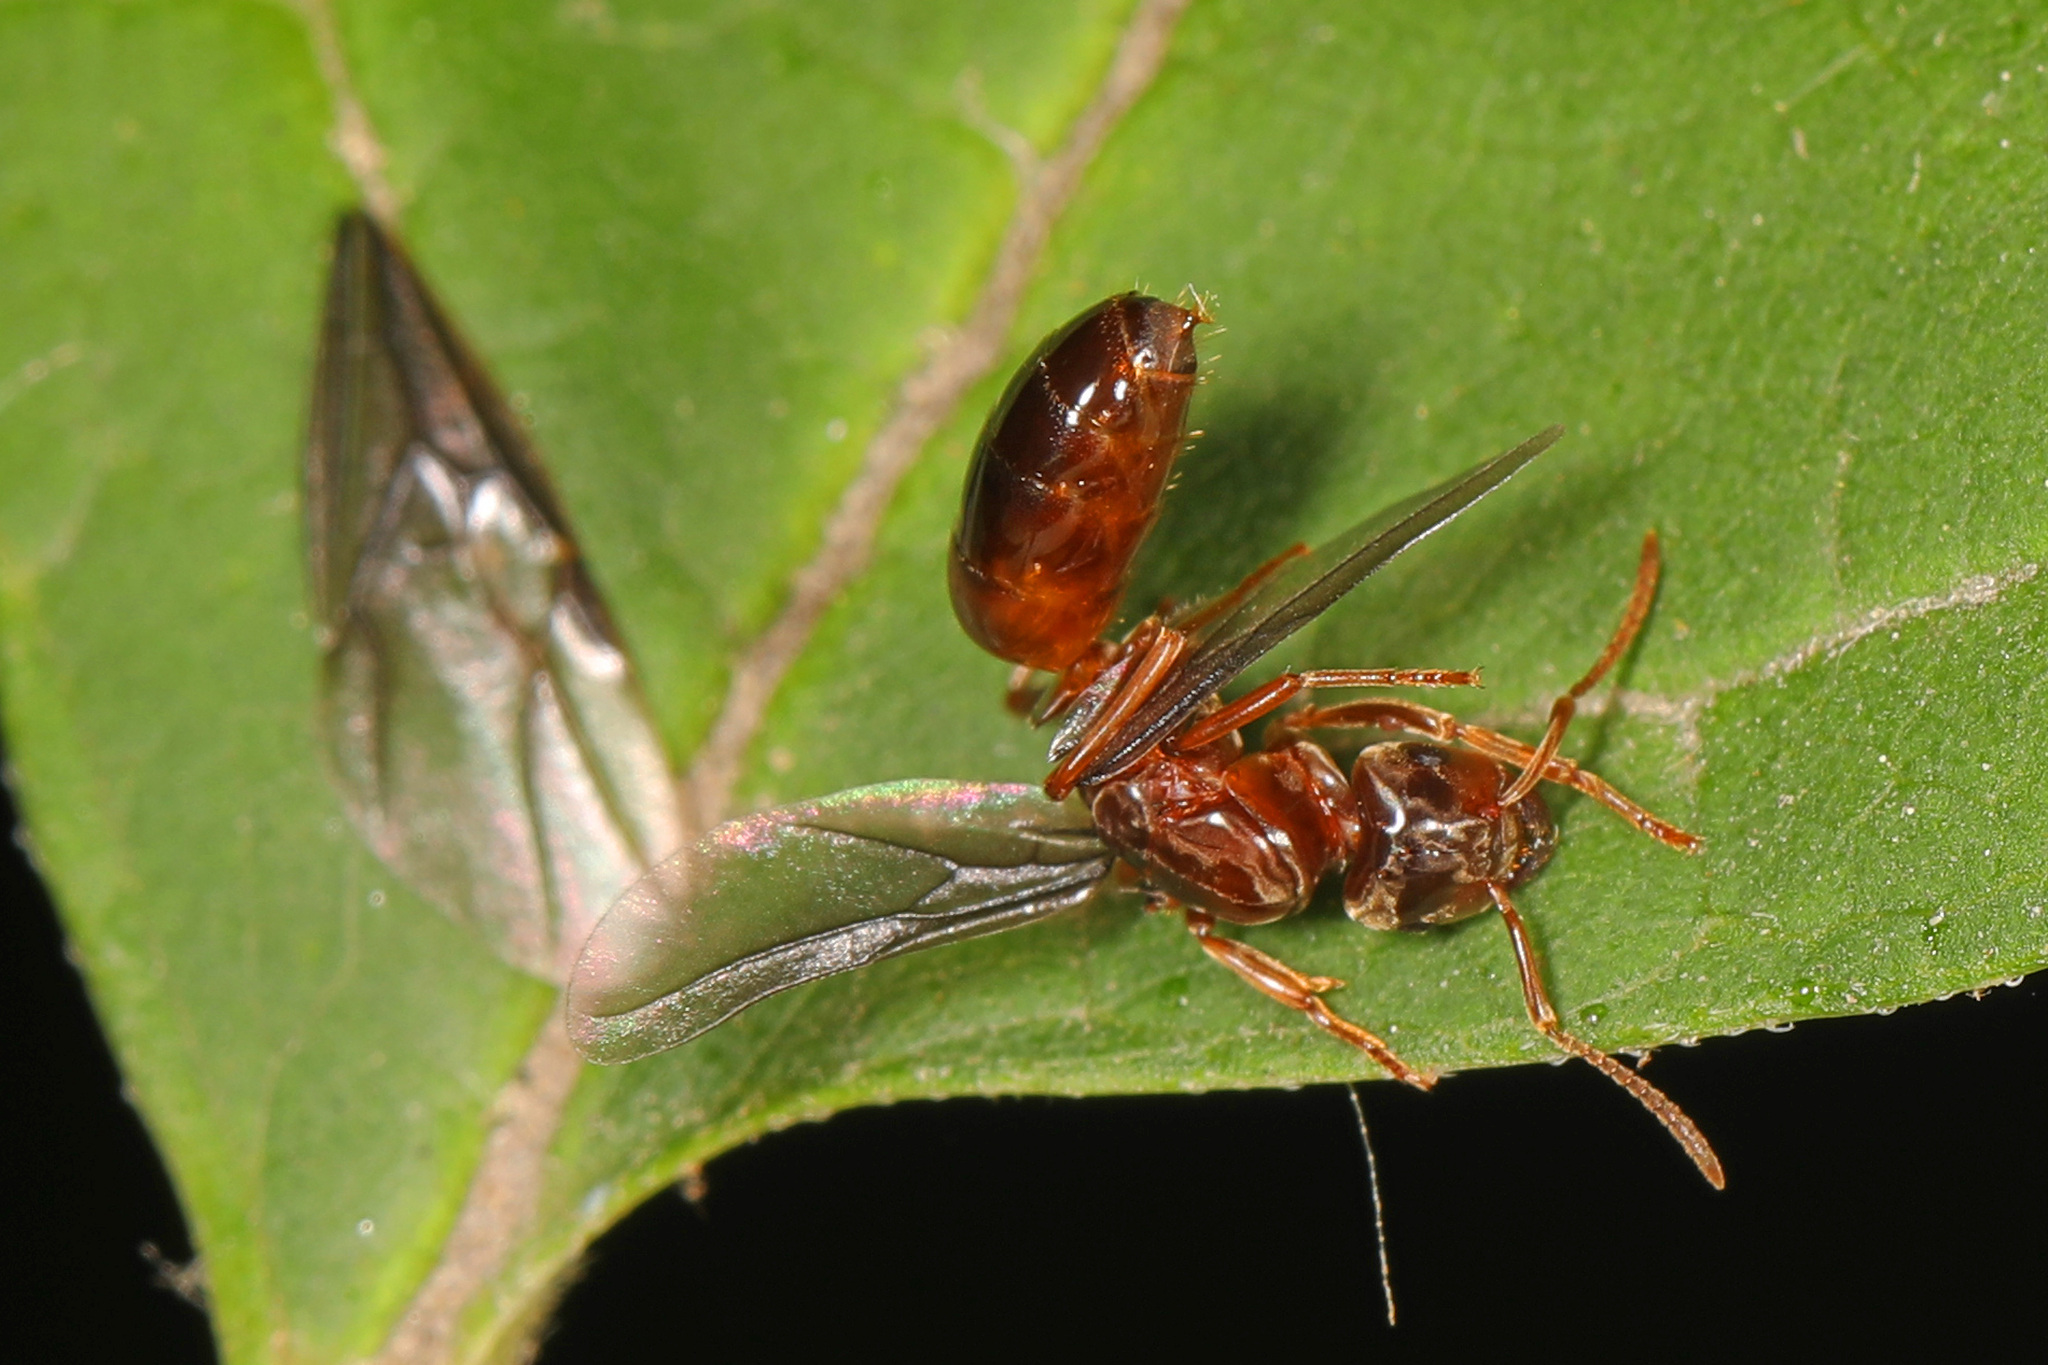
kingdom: Animalia
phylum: Arthropoda
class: Insecta
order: Hymenoptera
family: Formicidae
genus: Lasius
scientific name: Lasius speculiventris
